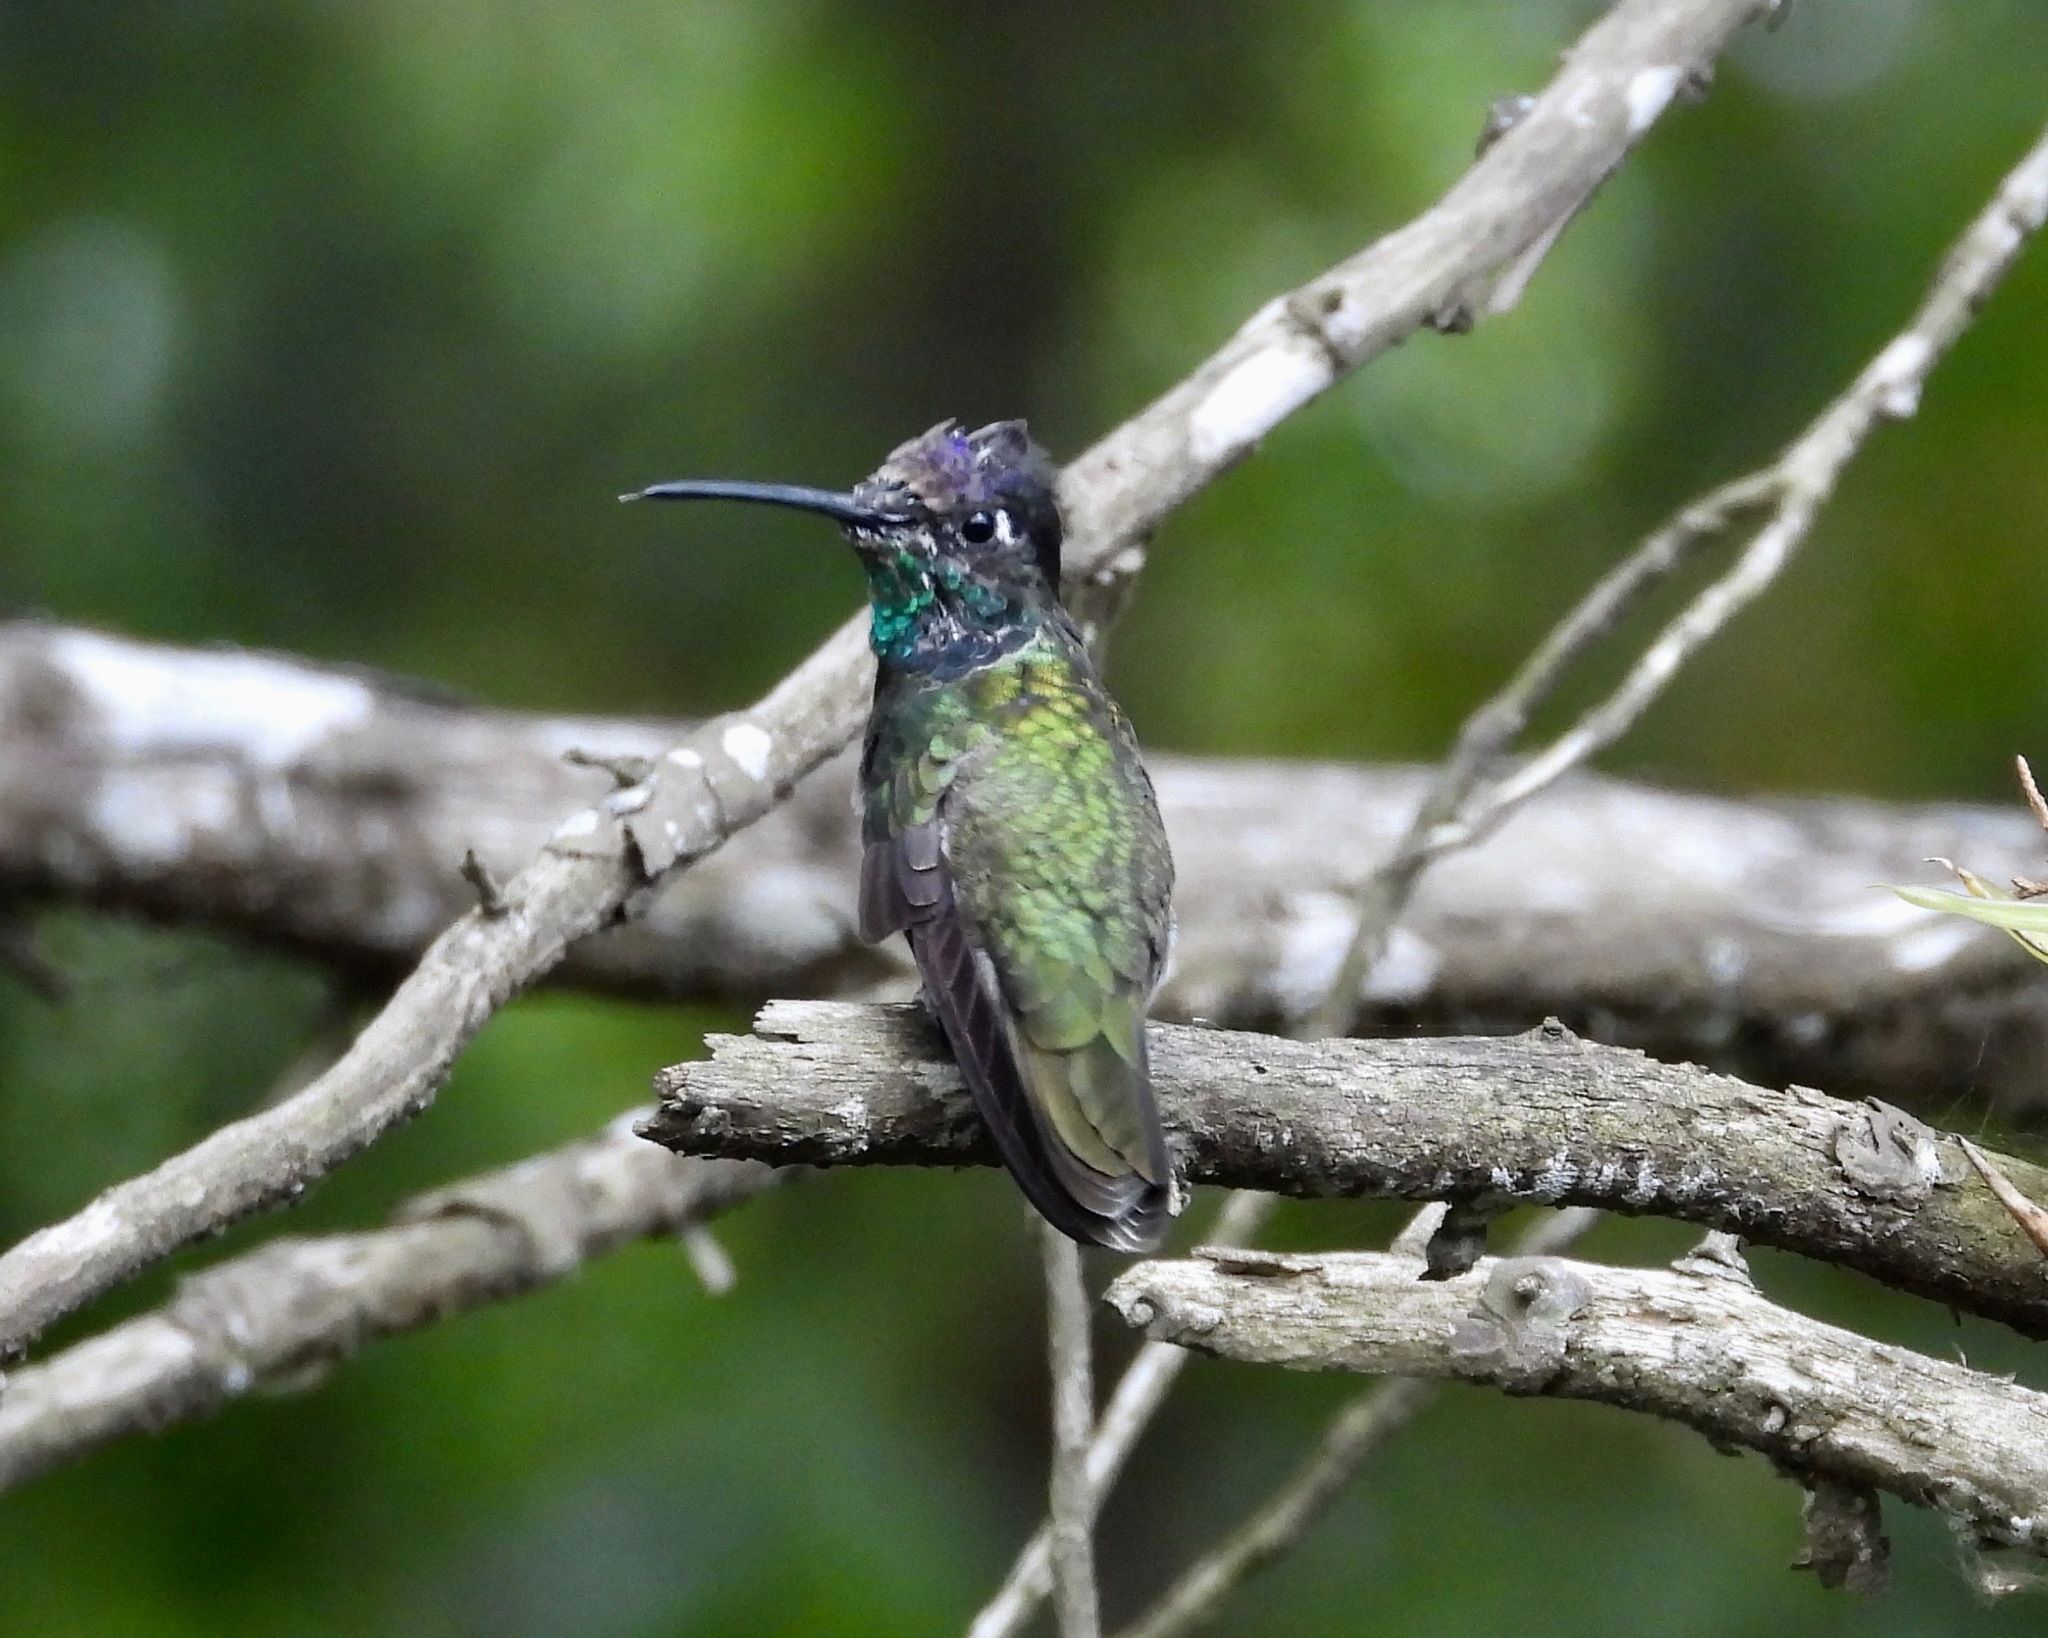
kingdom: Animalia
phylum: Chordata
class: Aves
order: Apodiformes
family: Trochilidae
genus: Eugenes
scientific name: Eugenes fulgens
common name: Magnificent hummingbird
